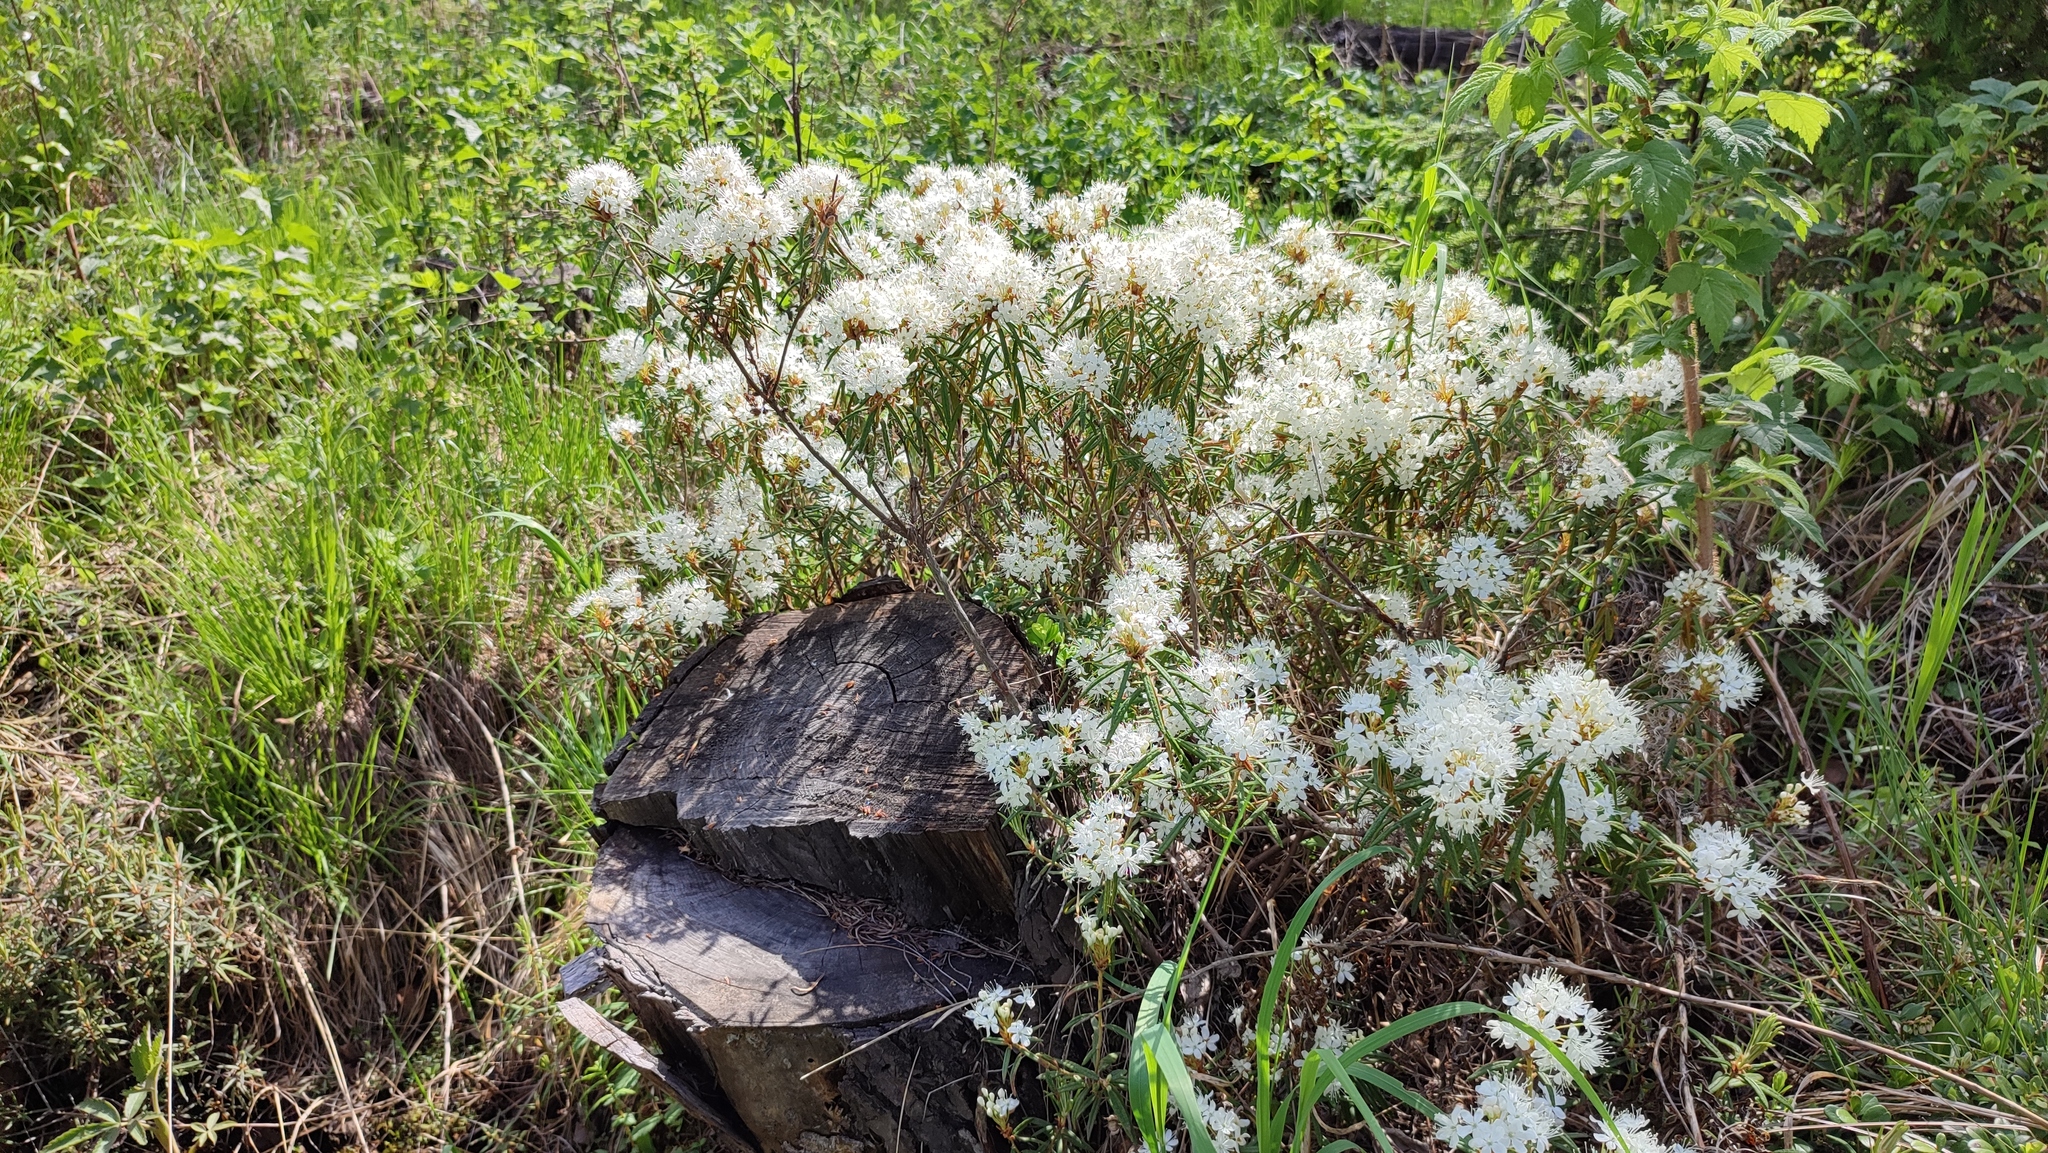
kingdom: Plantae
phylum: Tracheophyta
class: Magnoliopsida
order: Ericales
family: Ericaceae
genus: Rhododendron
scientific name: Rhododendron tomentosum
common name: Marsh labrador tea
